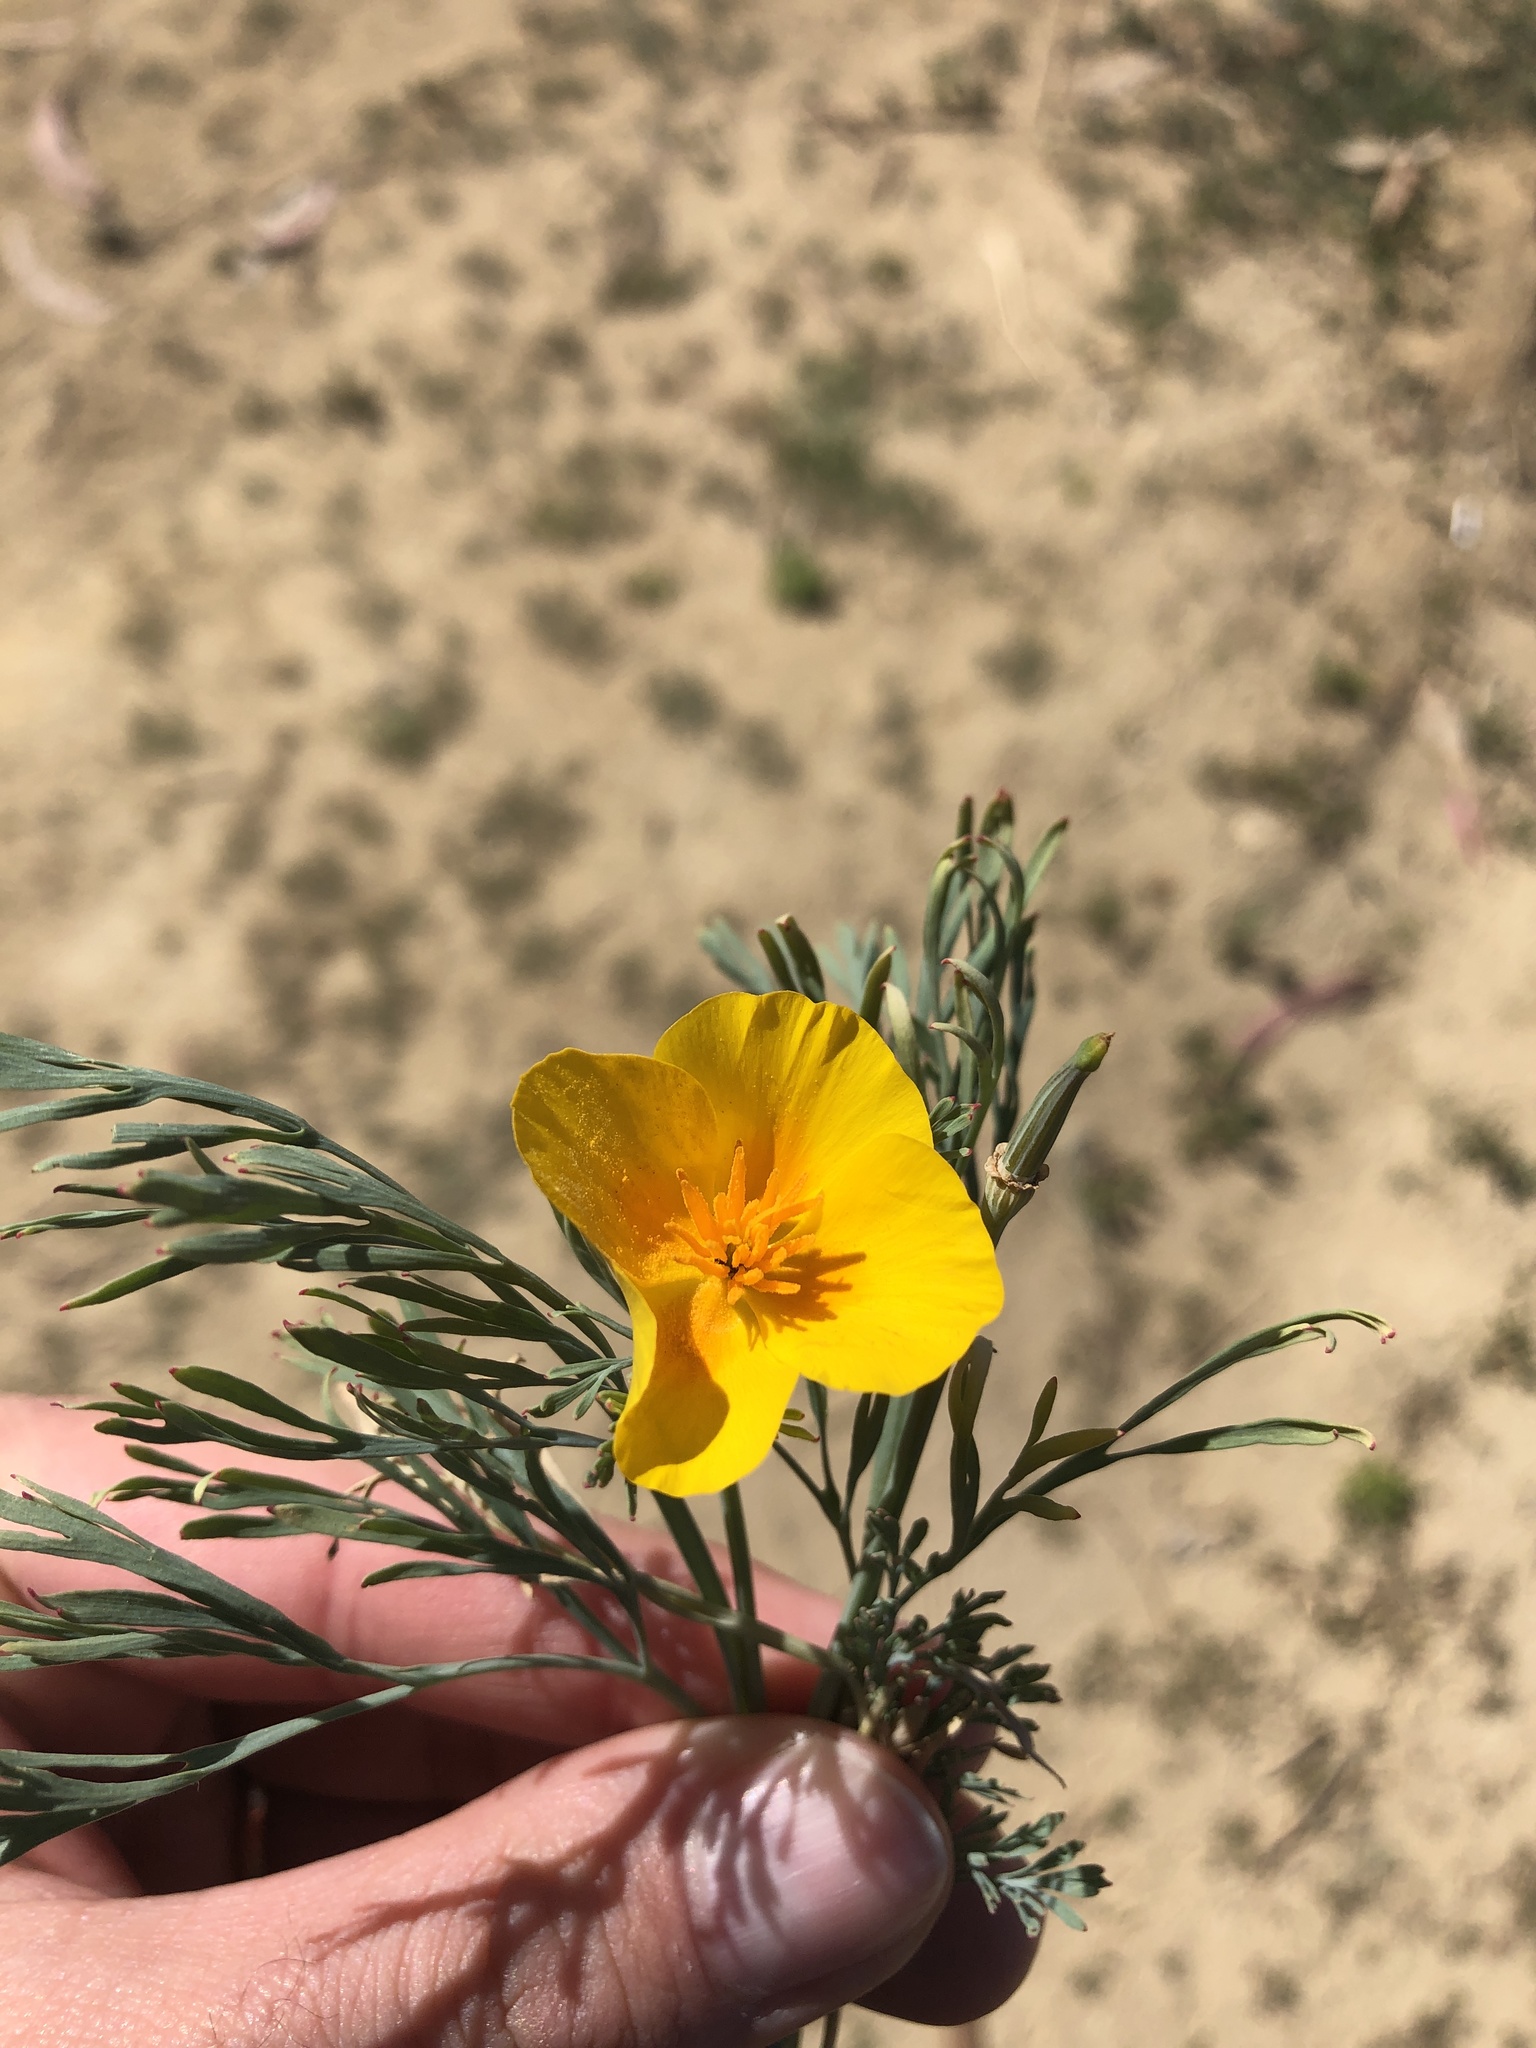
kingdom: Plantae
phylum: Tracheophyta
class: Magnoliopsida
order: Ranunculales
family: Papaveraceae
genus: Eschscholzia
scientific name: Eschscholzia californica
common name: California poppy
